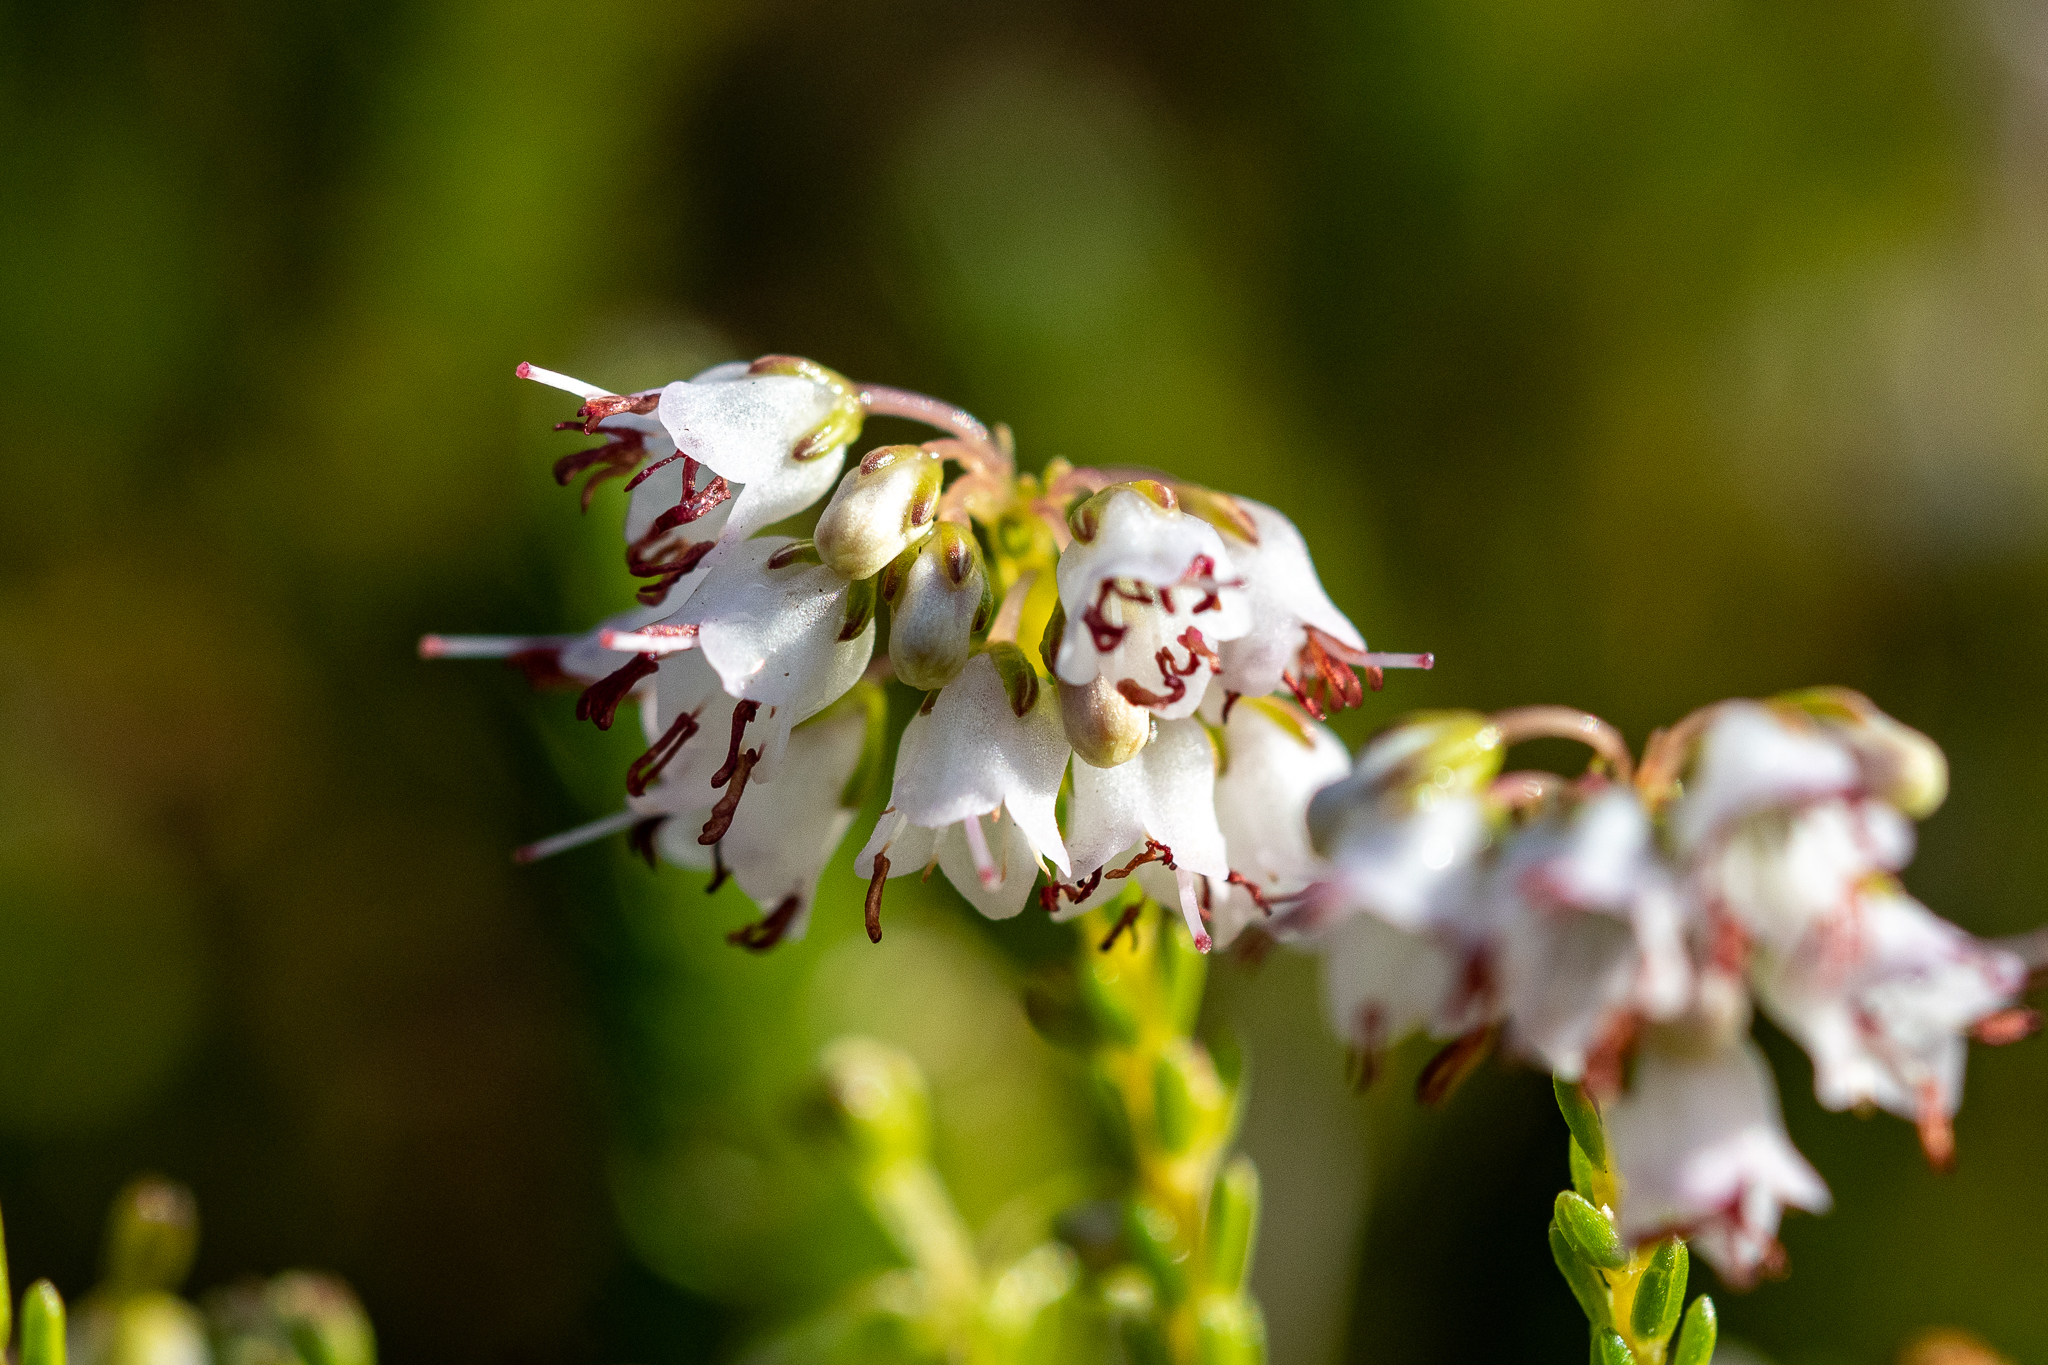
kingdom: Plantae
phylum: Tracheophyta
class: Magnoliopsida
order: Ericales
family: Ericaceae
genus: Erica
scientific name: Erica capillaris
